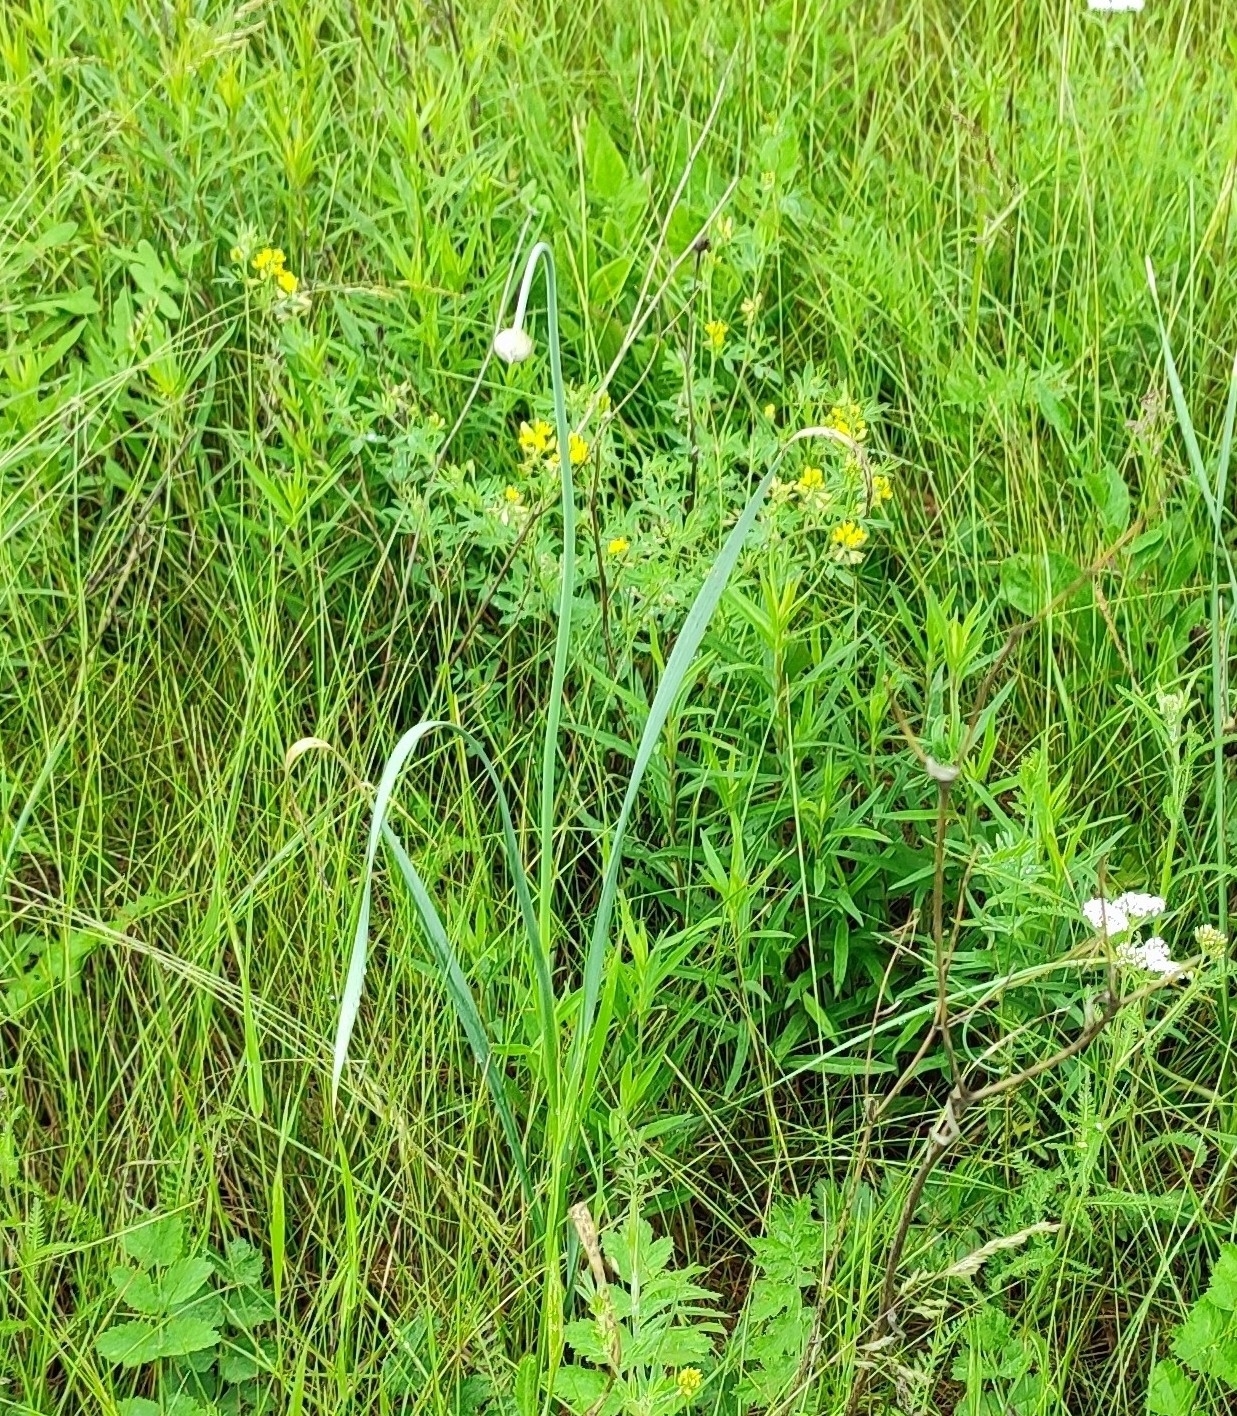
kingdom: Plantae
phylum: Tracheophyta
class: Liliopsida
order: Asparagales
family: Amaryllidaceae
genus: Allium
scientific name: Allium obliquum
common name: Oblique onion
